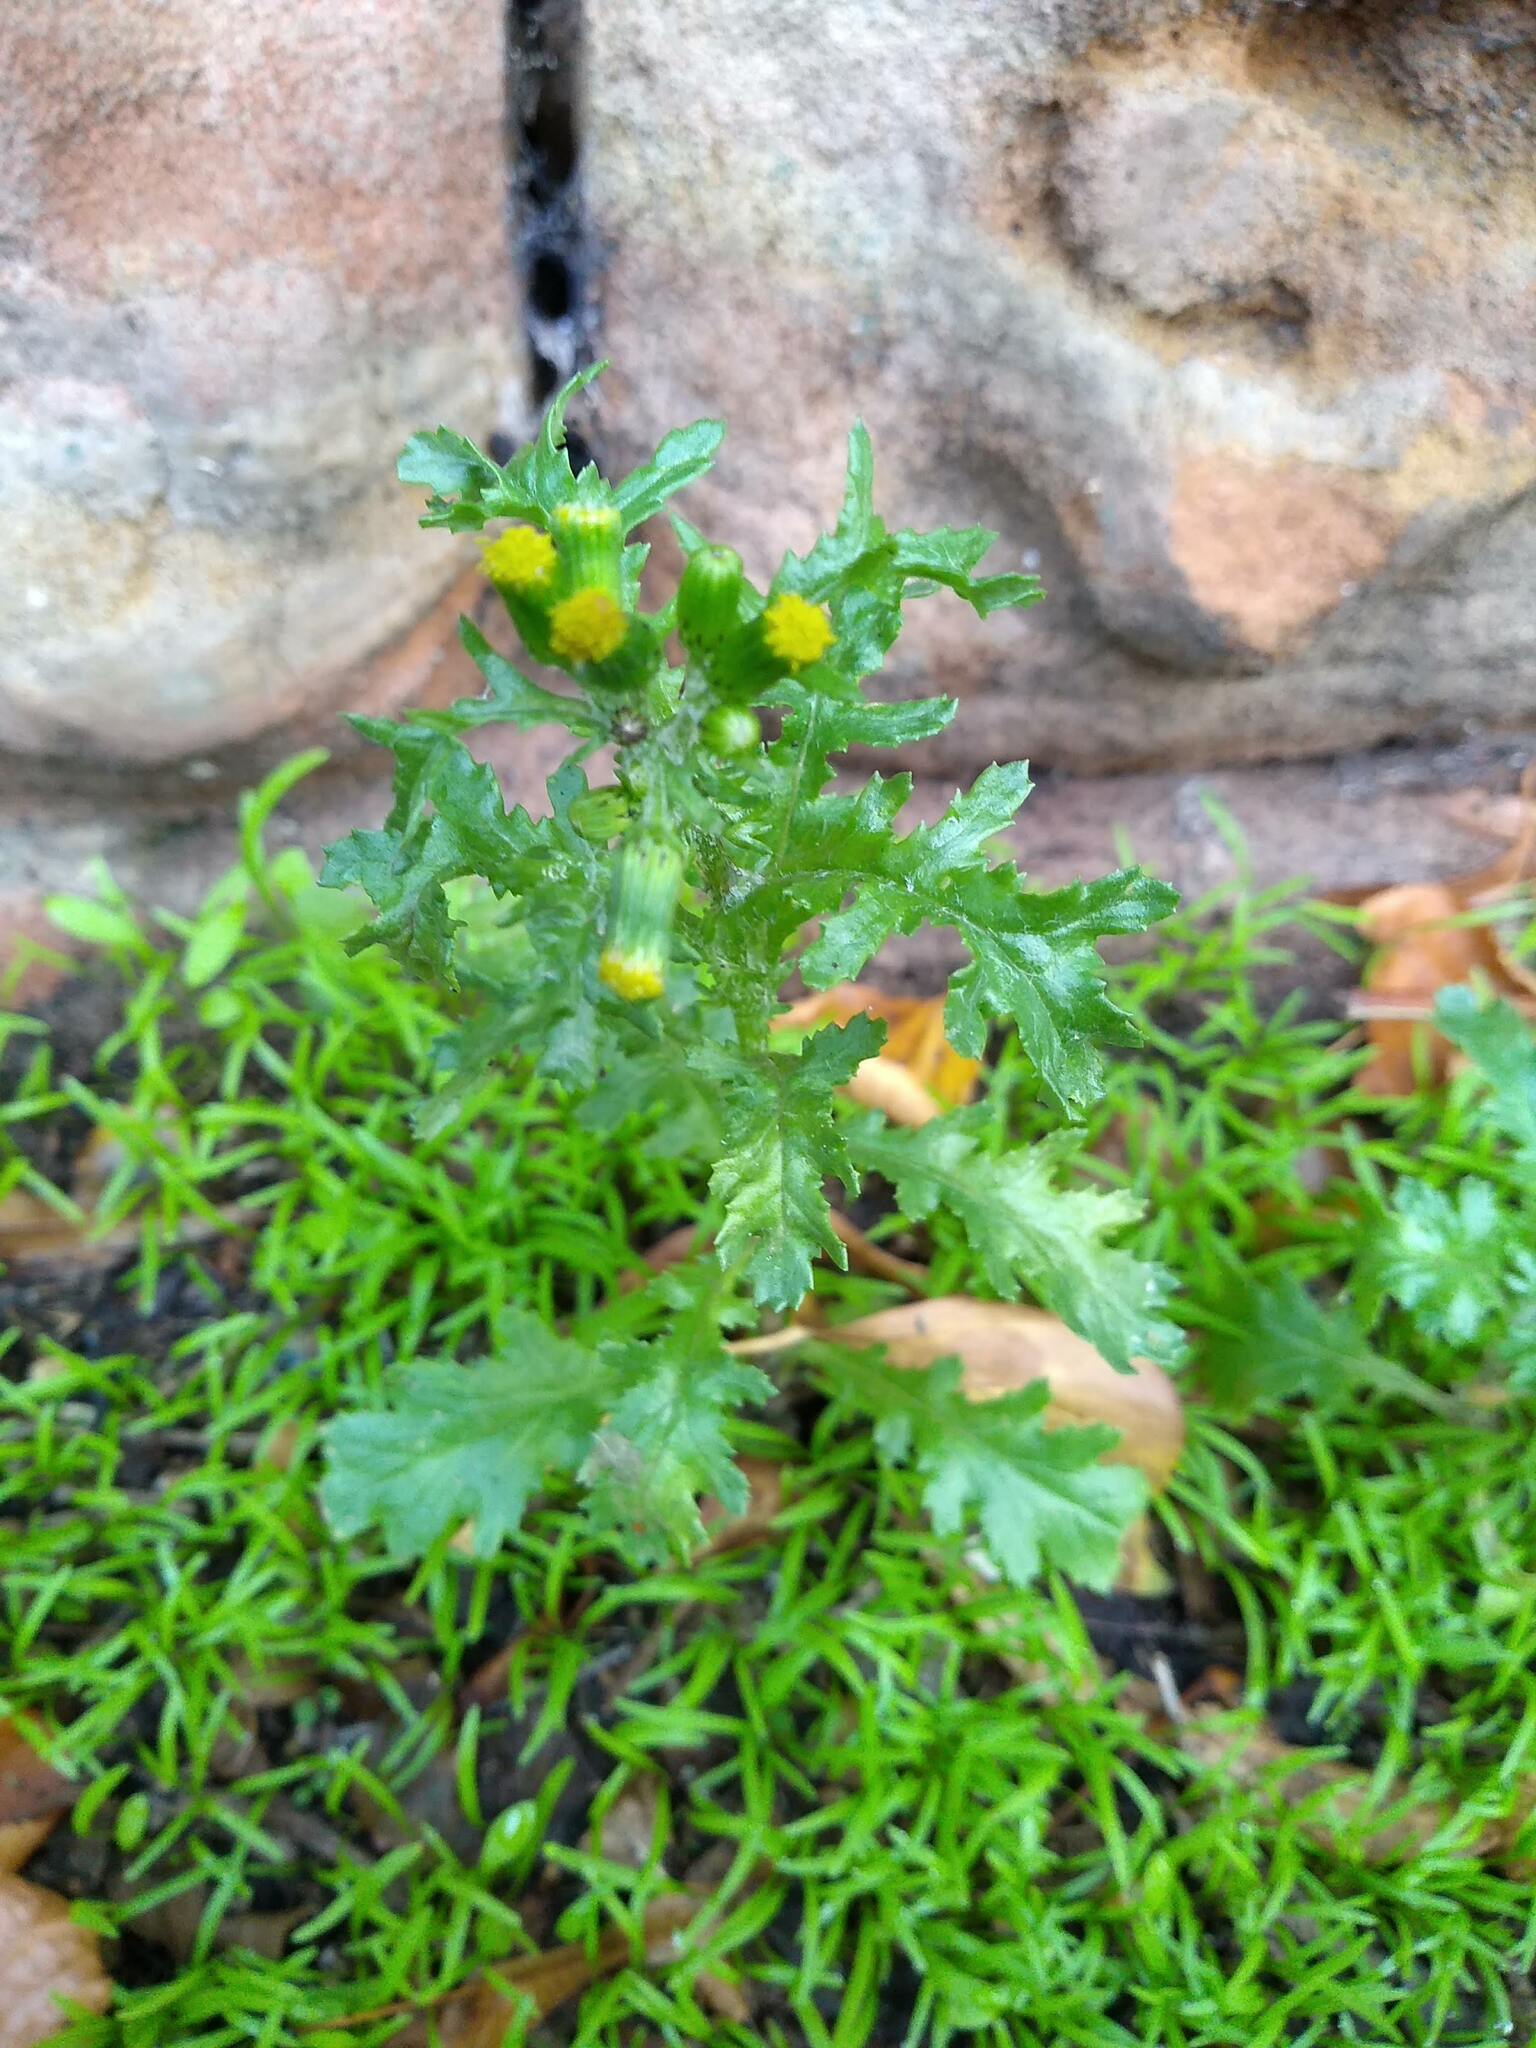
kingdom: Plantae
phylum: Tracheophyta
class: Magnoliopsida
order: Asterales
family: Asteraceae
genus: Senecio
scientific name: Senecio vulgaris
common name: Old-man-in-the-spring
